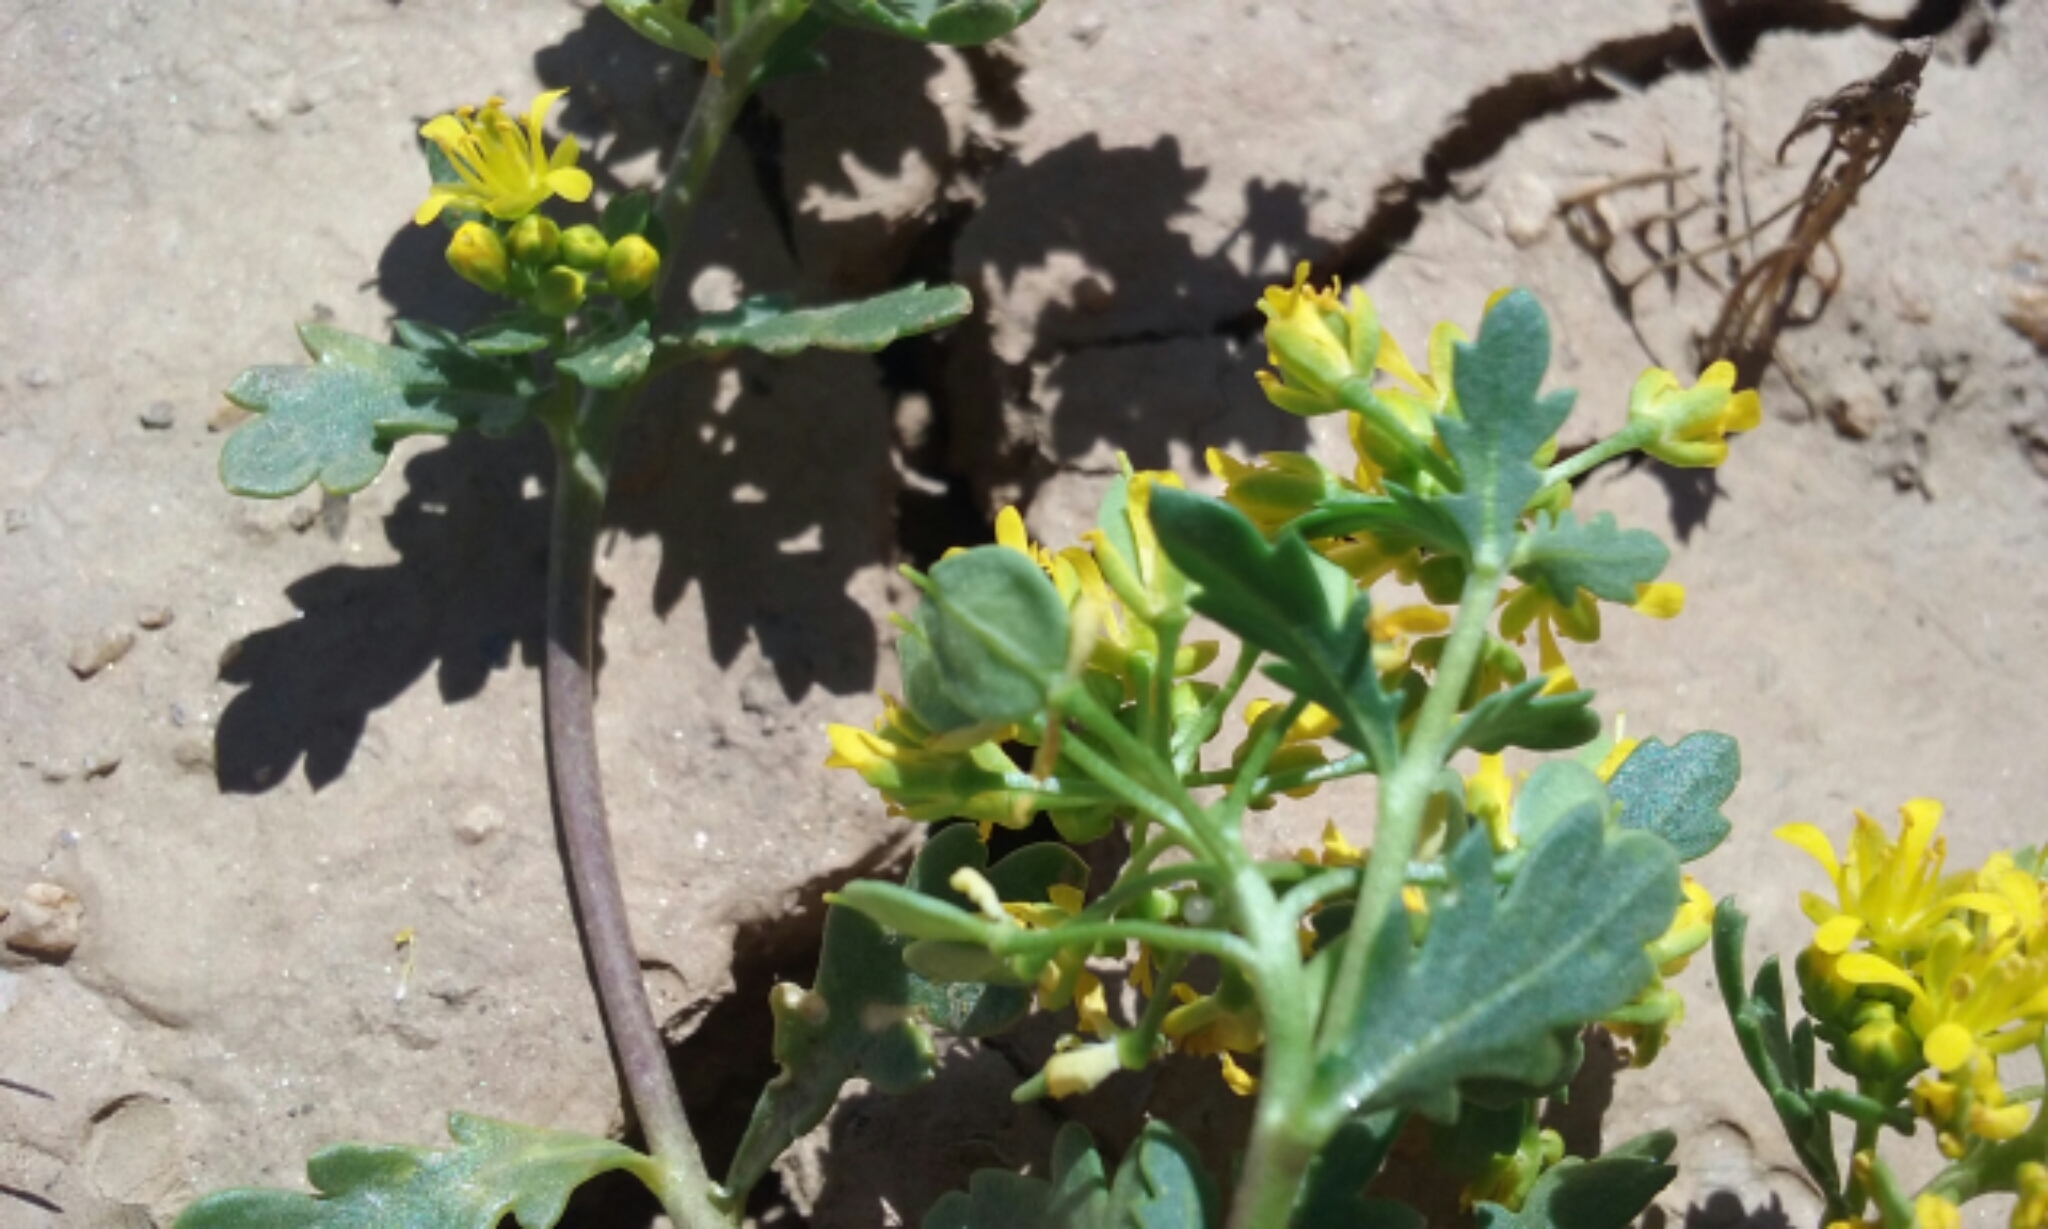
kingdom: Plantae
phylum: Tracheophyta
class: Magnoliopsida
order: Brassicales
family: Brassicaceae
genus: Lepidium
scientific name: Lepidium flavum
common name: Yellow pepperwort
